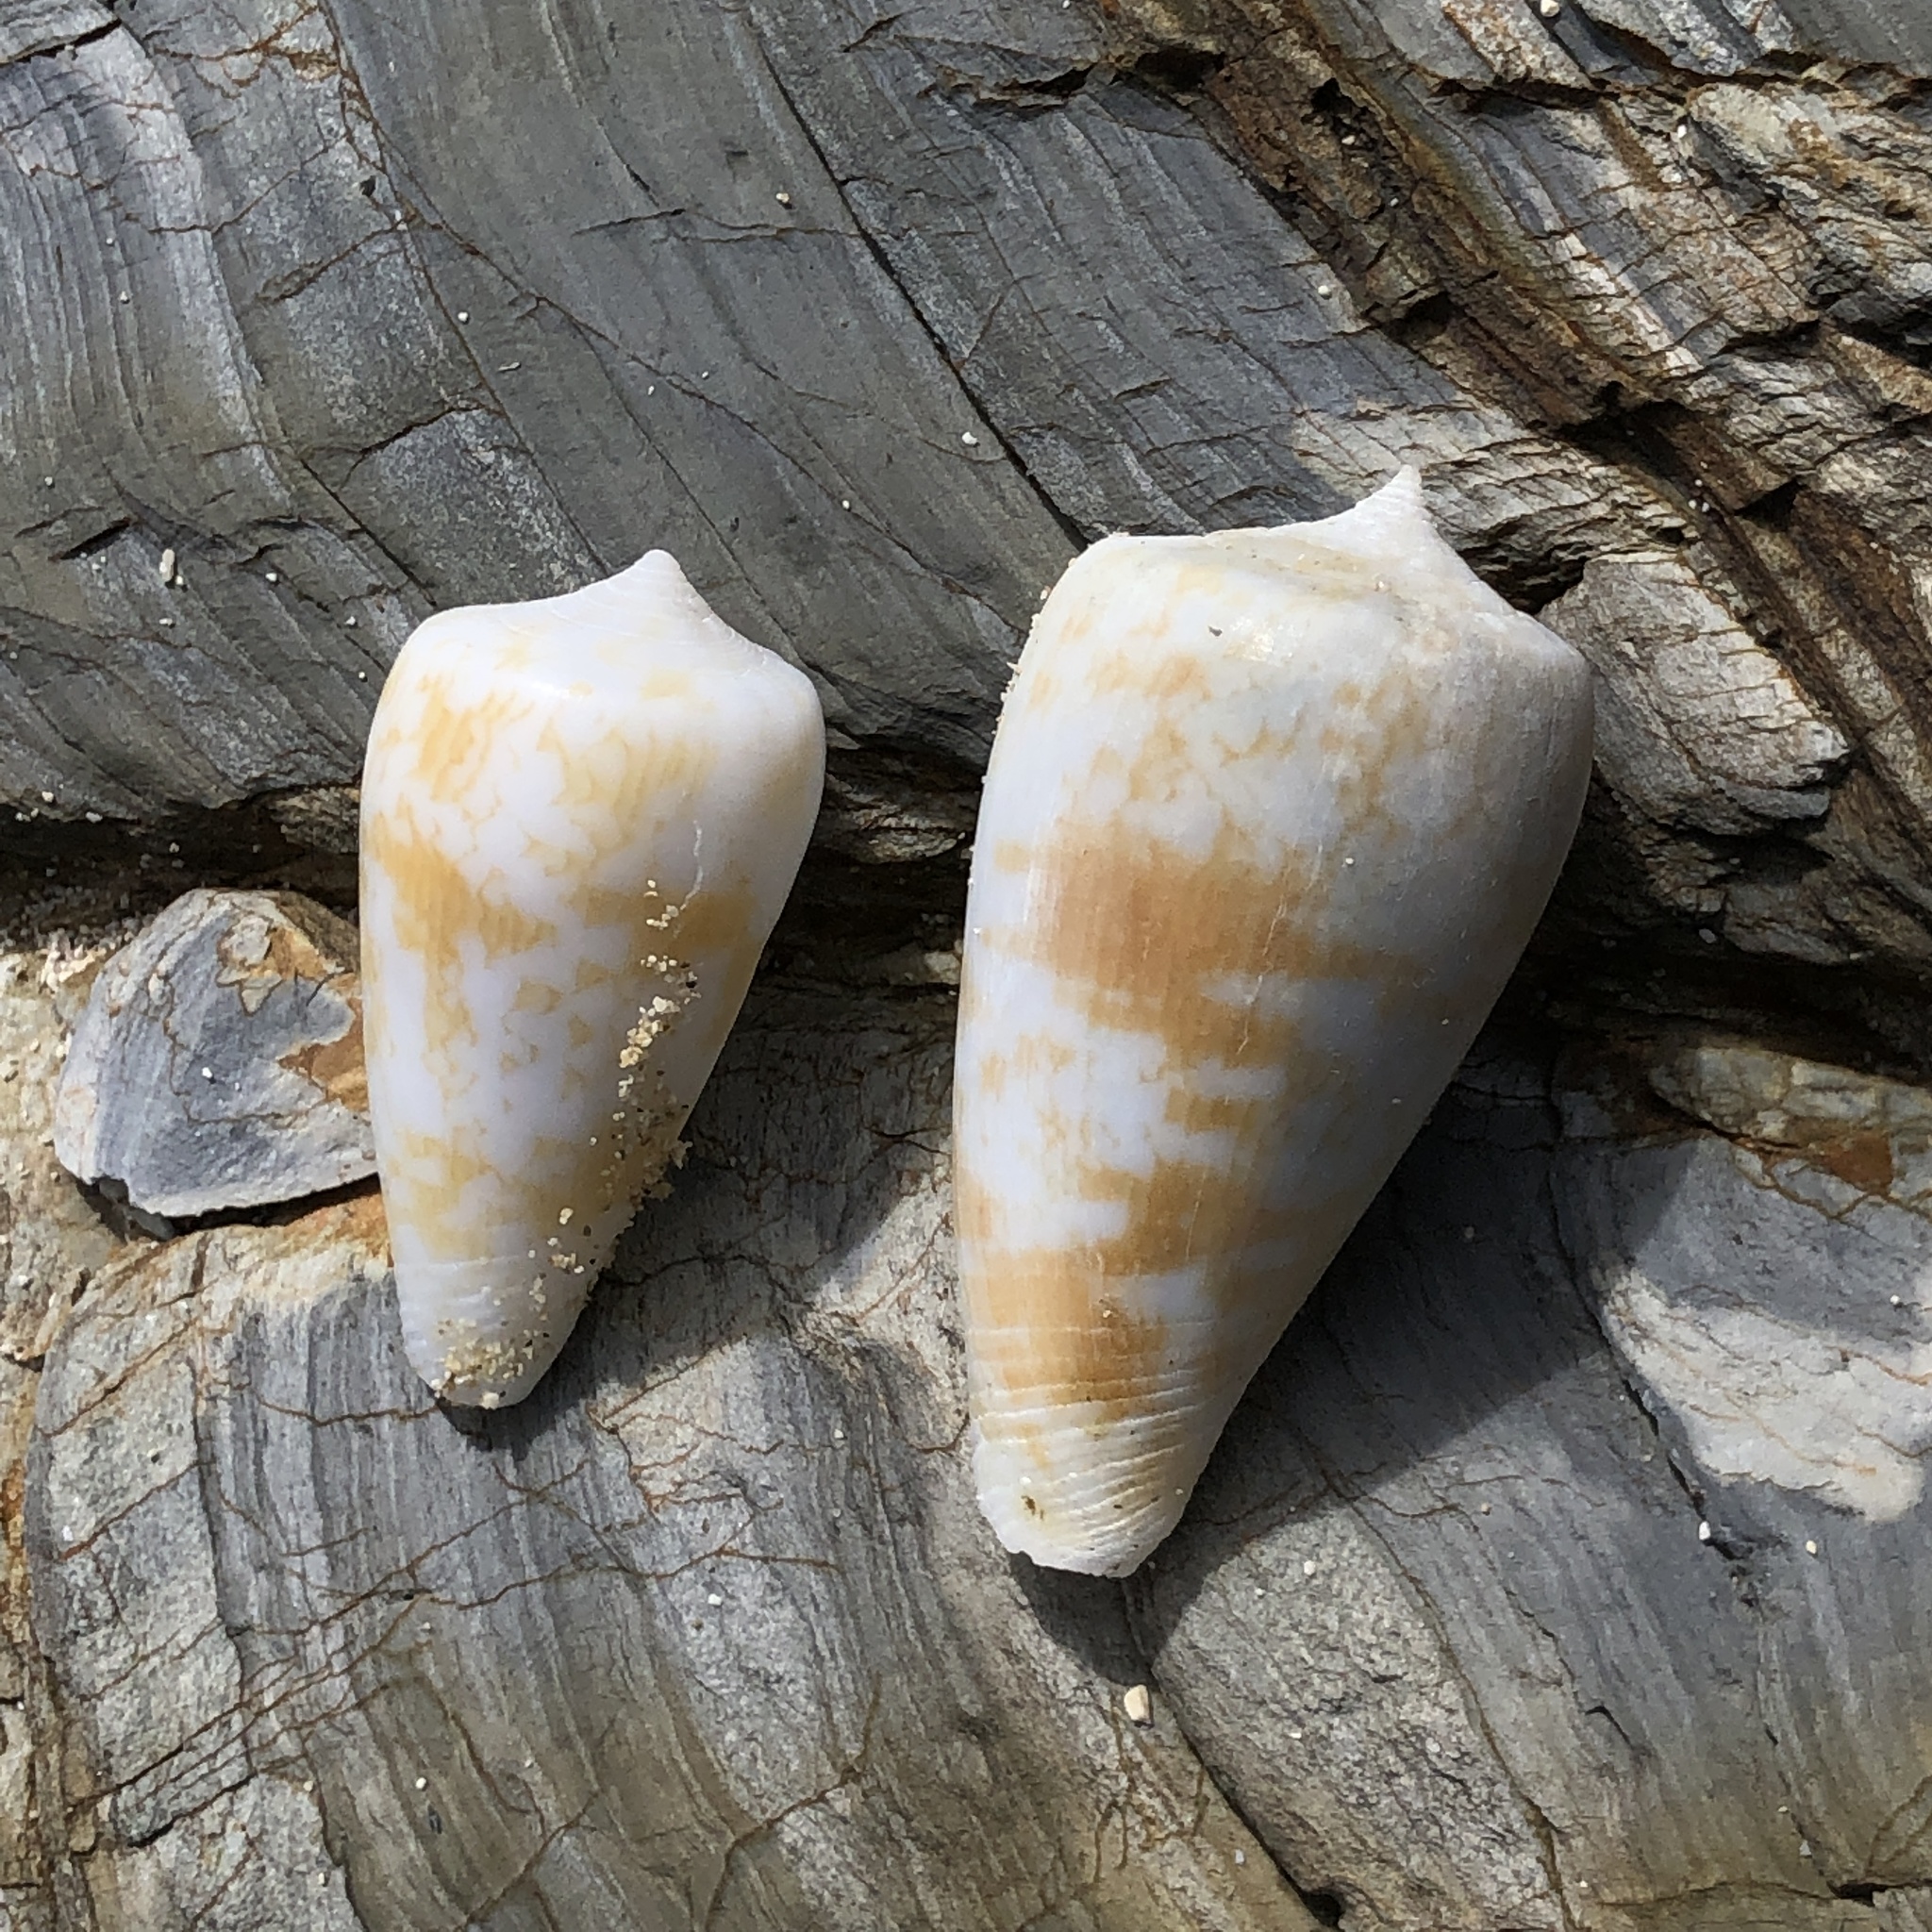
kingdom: Animalia
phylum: Mollusca
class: Gastropoda
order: Neogastropoda
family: Conidae
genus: Conus
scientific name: Conus spectrum
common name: Spectral cone
